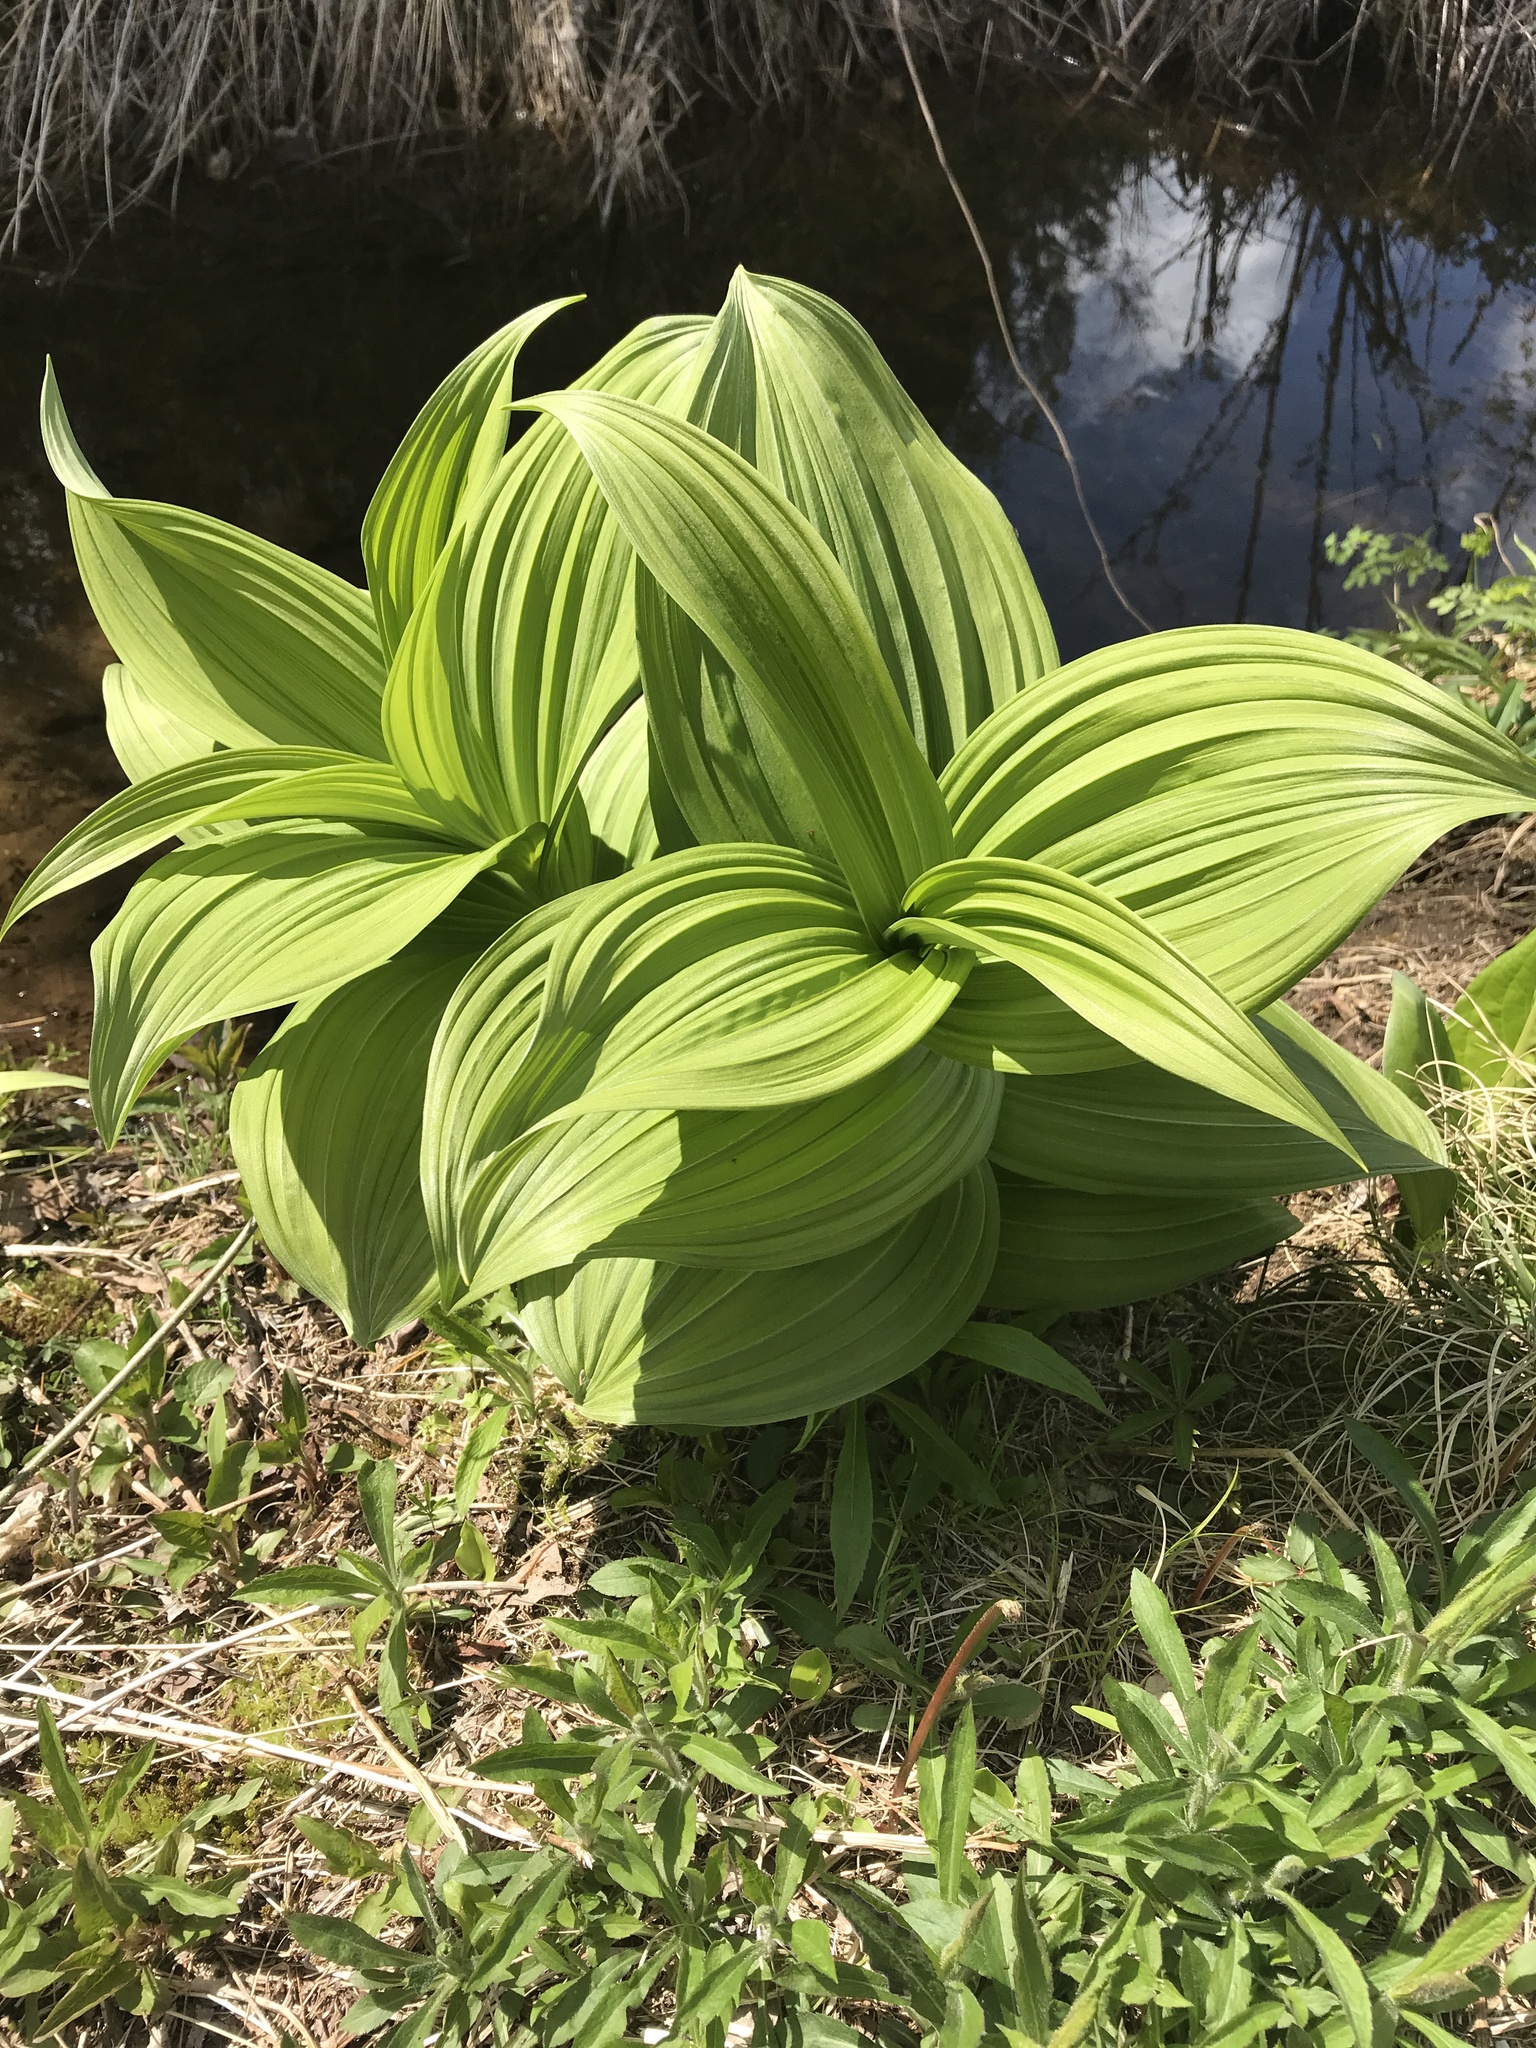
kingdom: Plantae
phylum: Tracheophyta
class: Liliopsida
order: Liliales
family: Melanthiaceae
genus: Veratrum
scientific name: Veratrum viride
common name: American false hellebore
